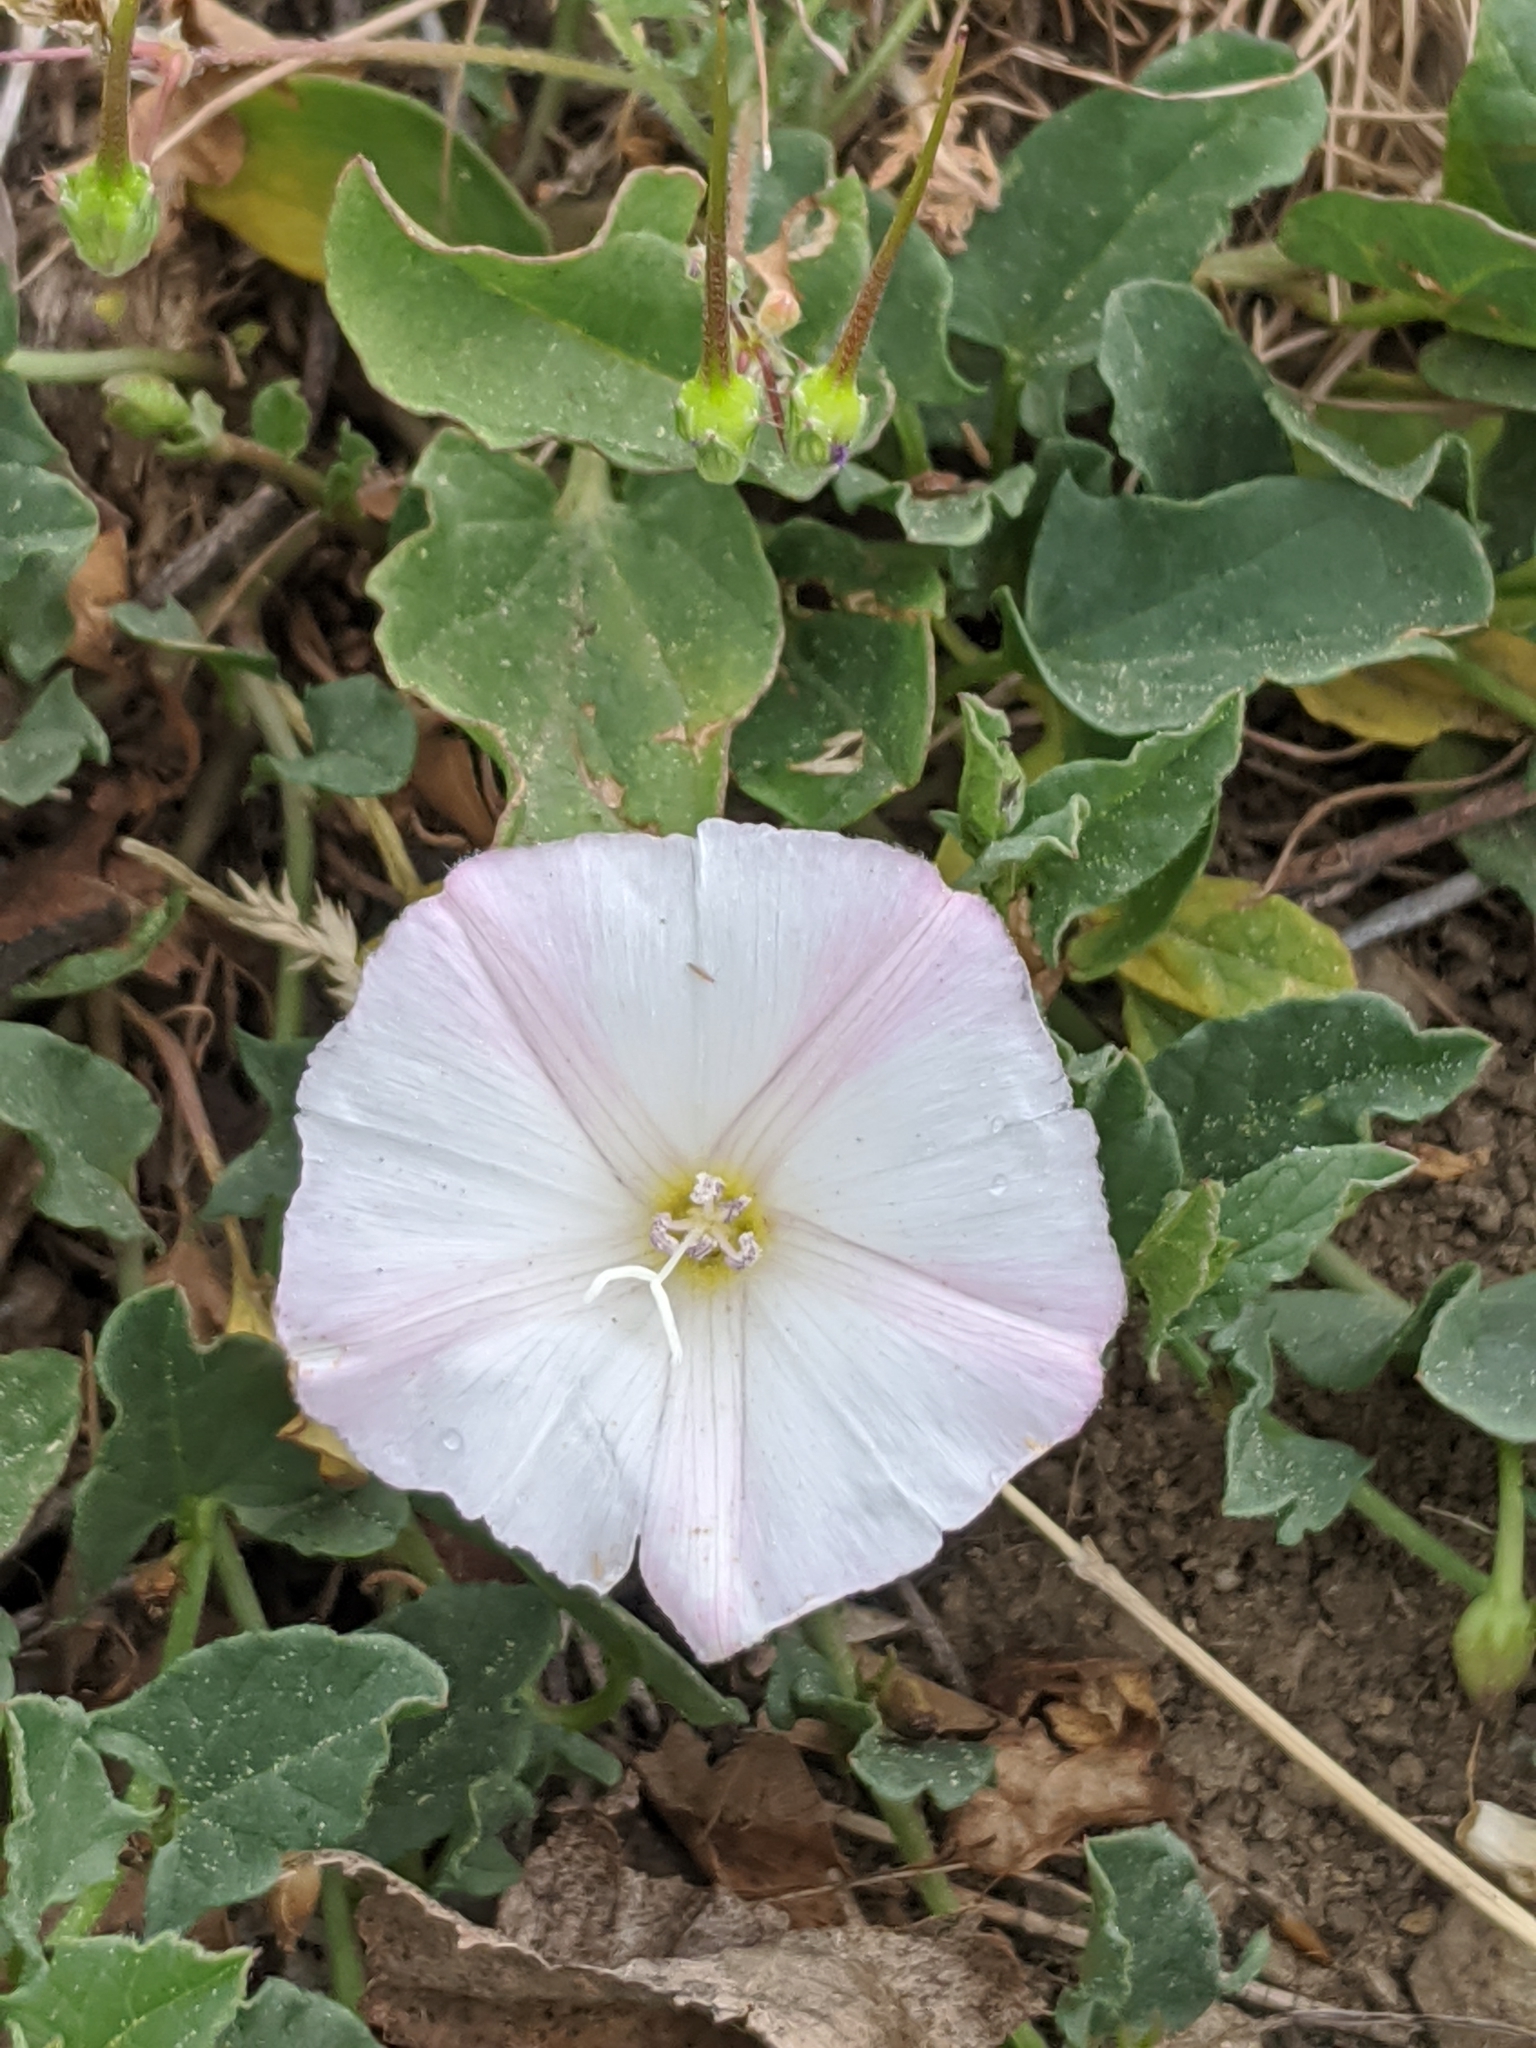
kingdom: Plantae
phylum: Tracheophyta
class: Magnoliopsida
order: Solanales
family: Convolvulaceae
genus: Convolvulus
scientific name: Convolvulus arvensis
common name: Field bindweed
